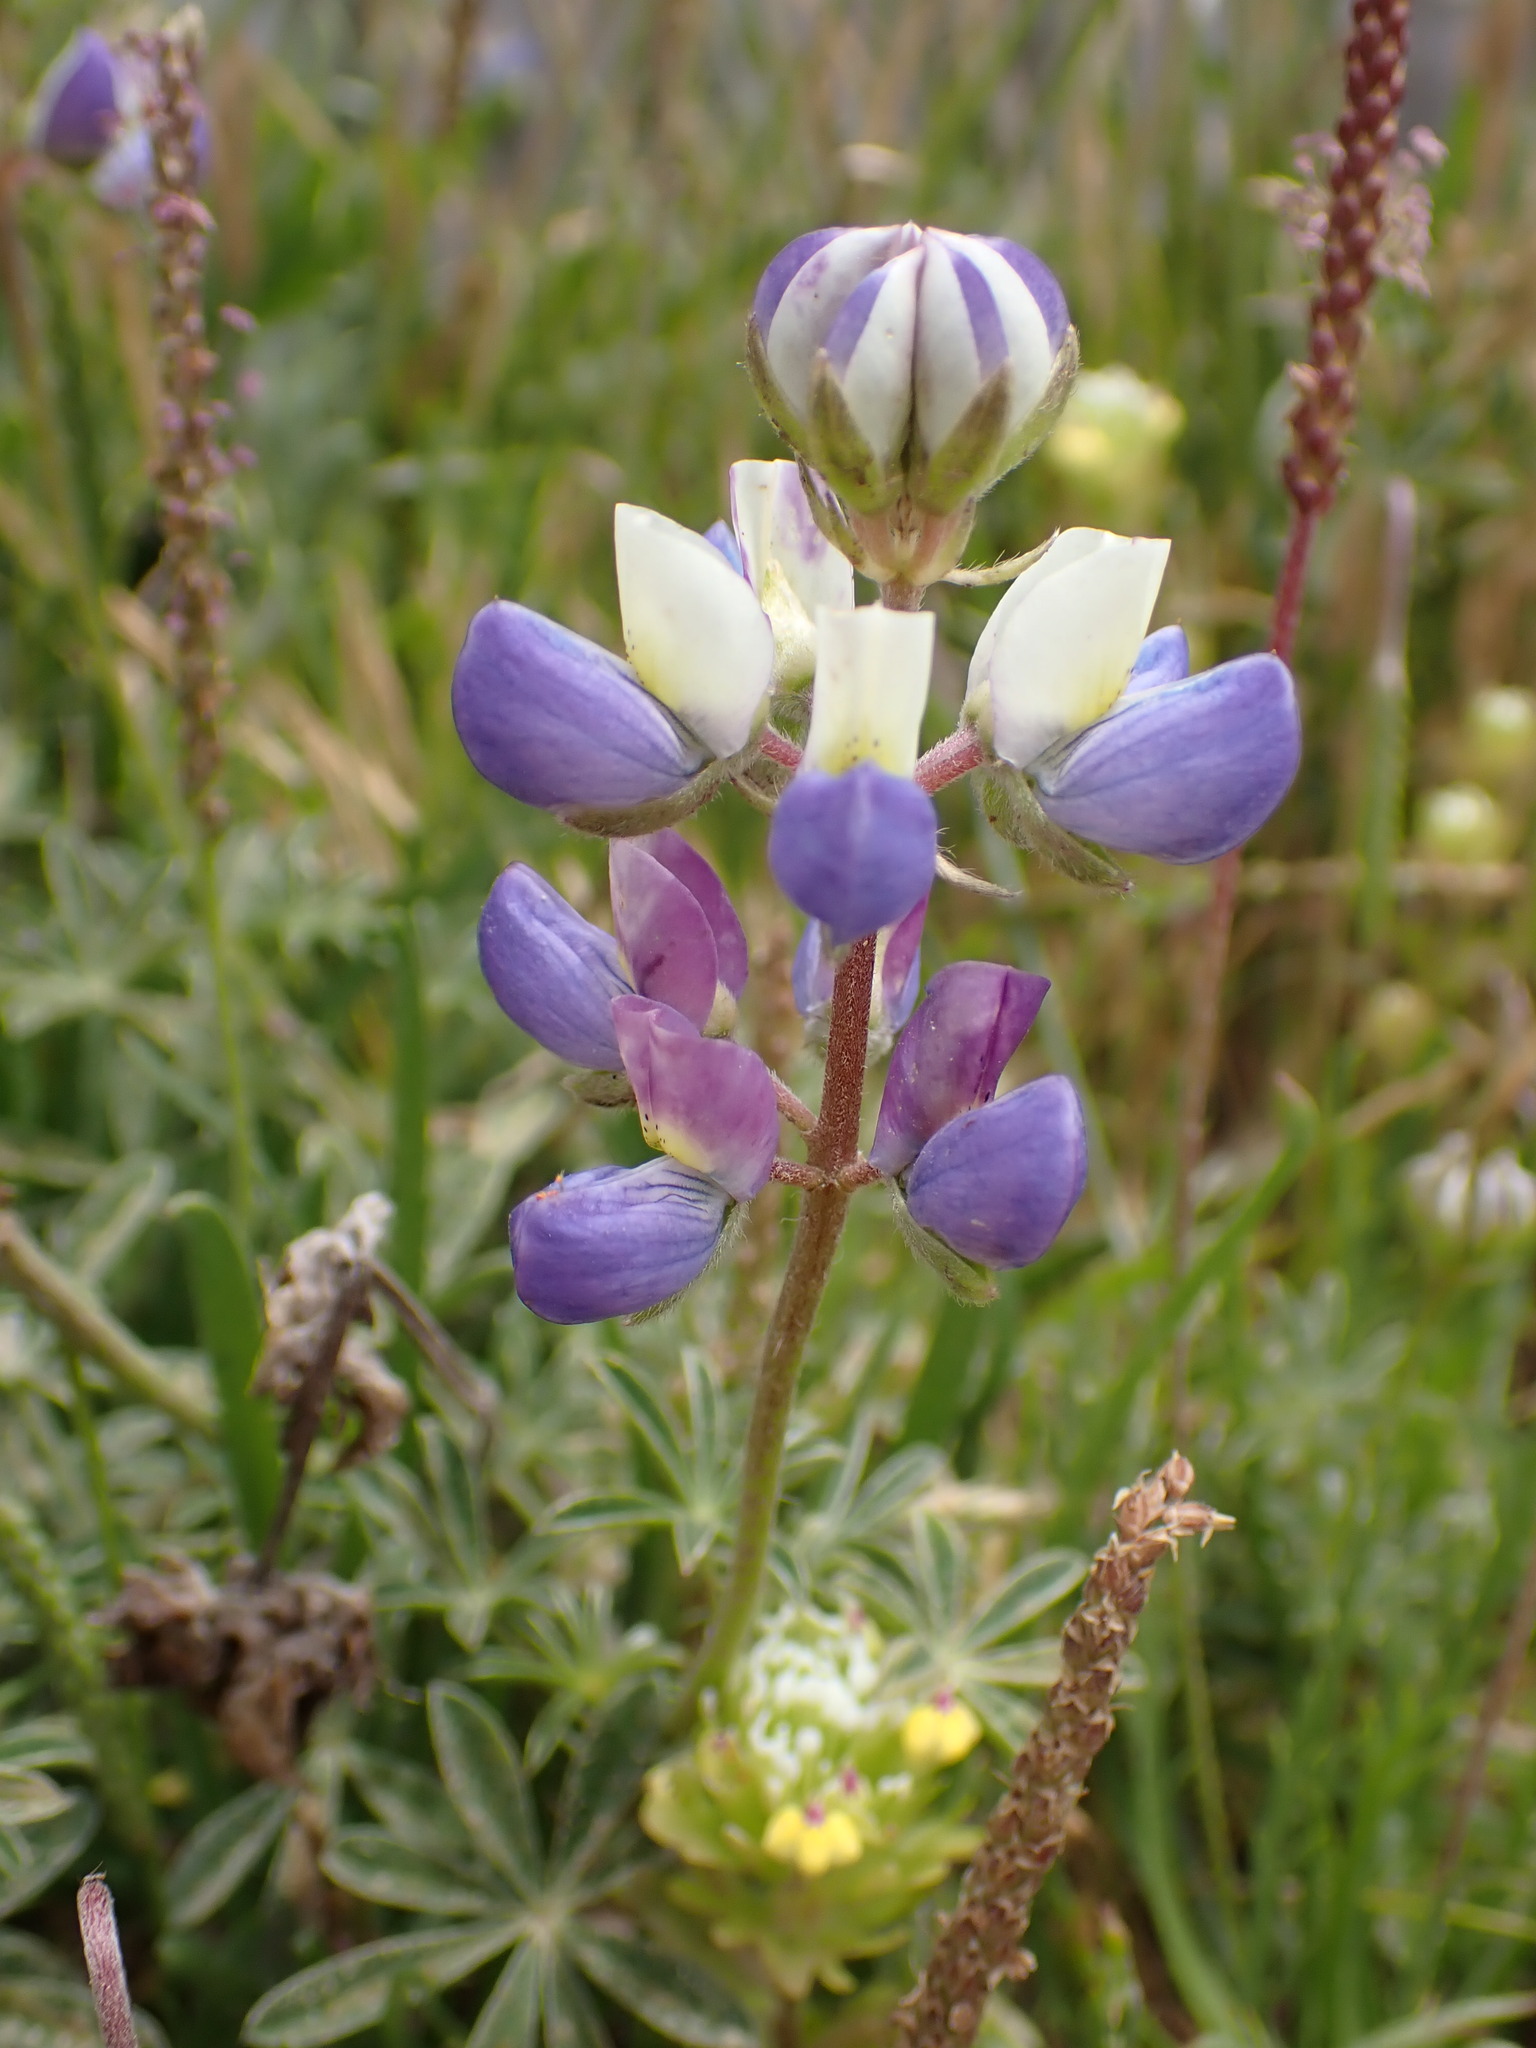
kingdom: Plantae
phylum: Tracheophyta
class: Magnoliopsida
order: Fabales
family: Fabaceae
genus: Lupinus
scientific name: Lupinus variicolor
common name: Lindley's varied lupine
